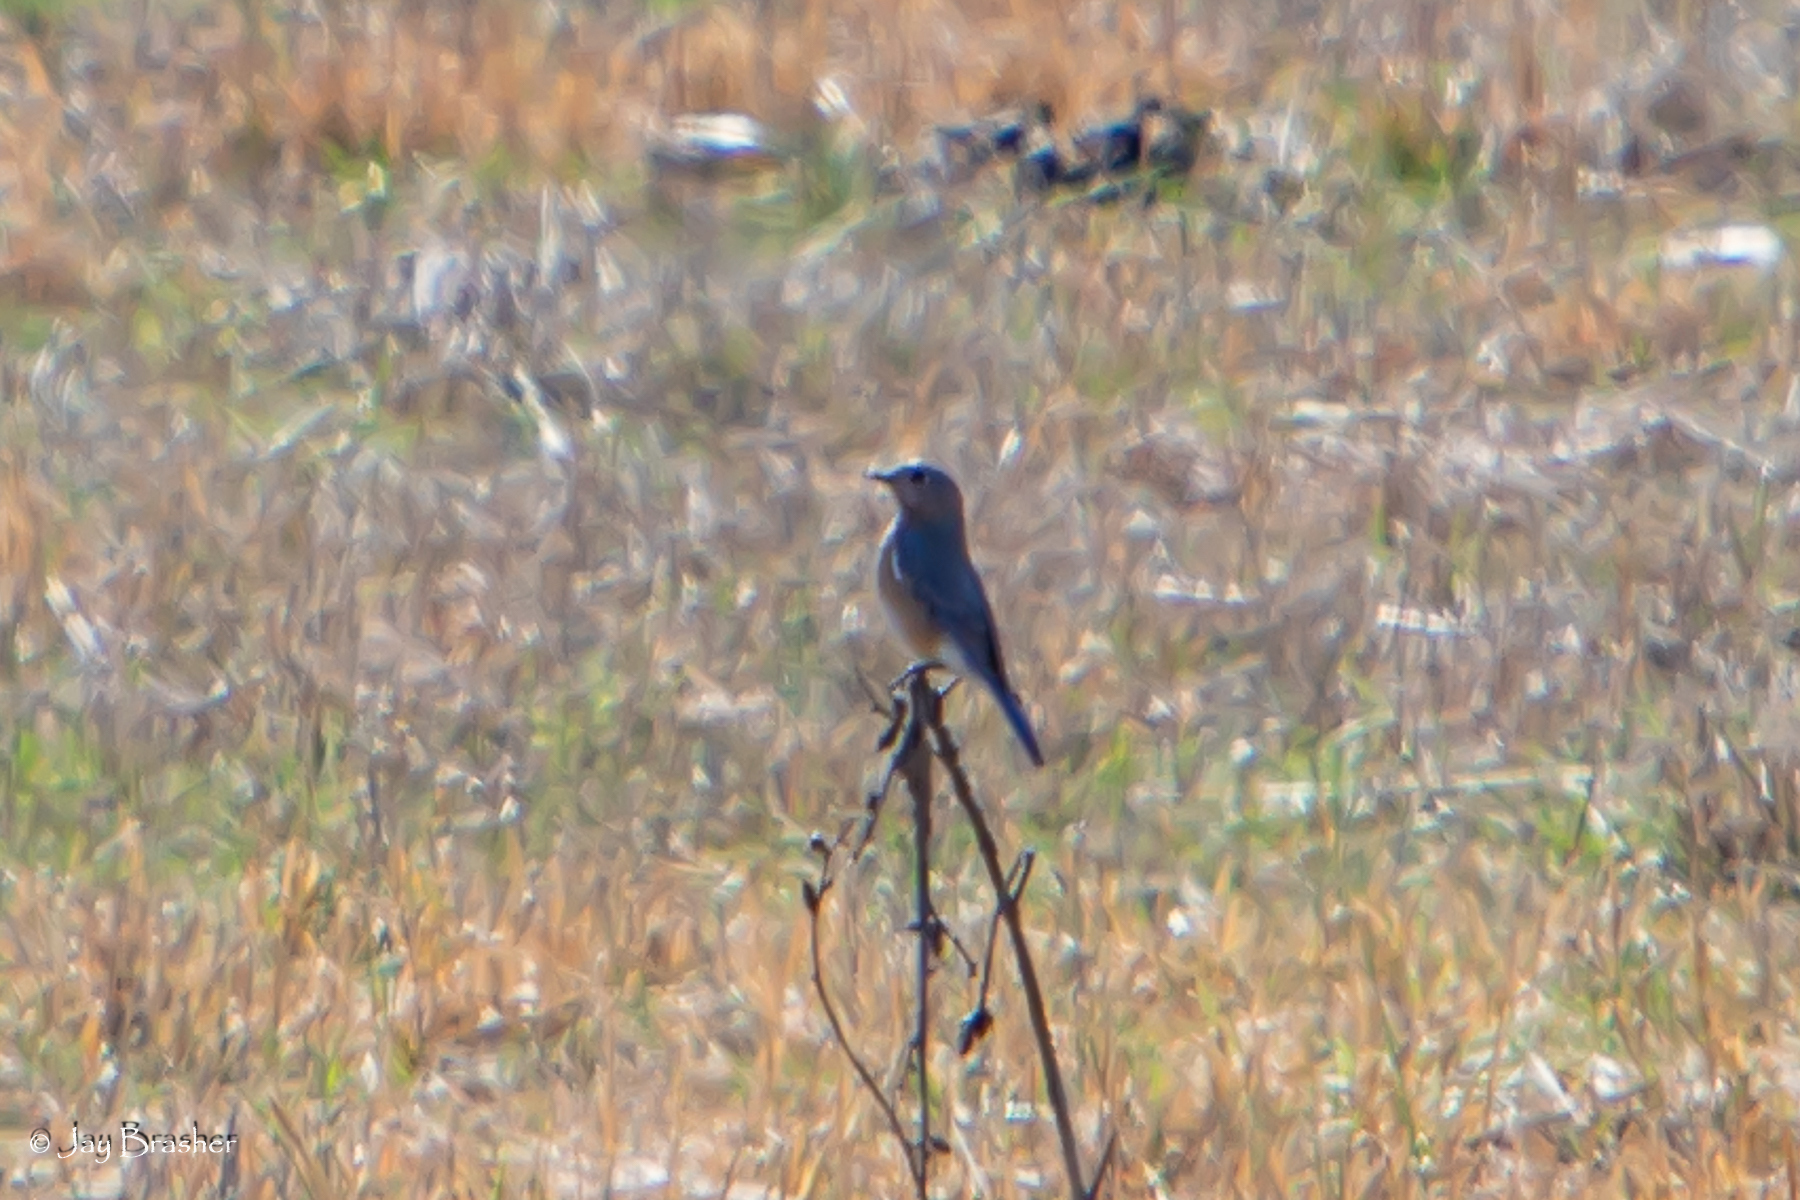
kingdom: Animalia
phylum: Chordata
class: Aves
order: Passeriformes
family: Turdidae
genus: Sialia
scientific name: Sialia sialis
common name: Eastern bluebird
